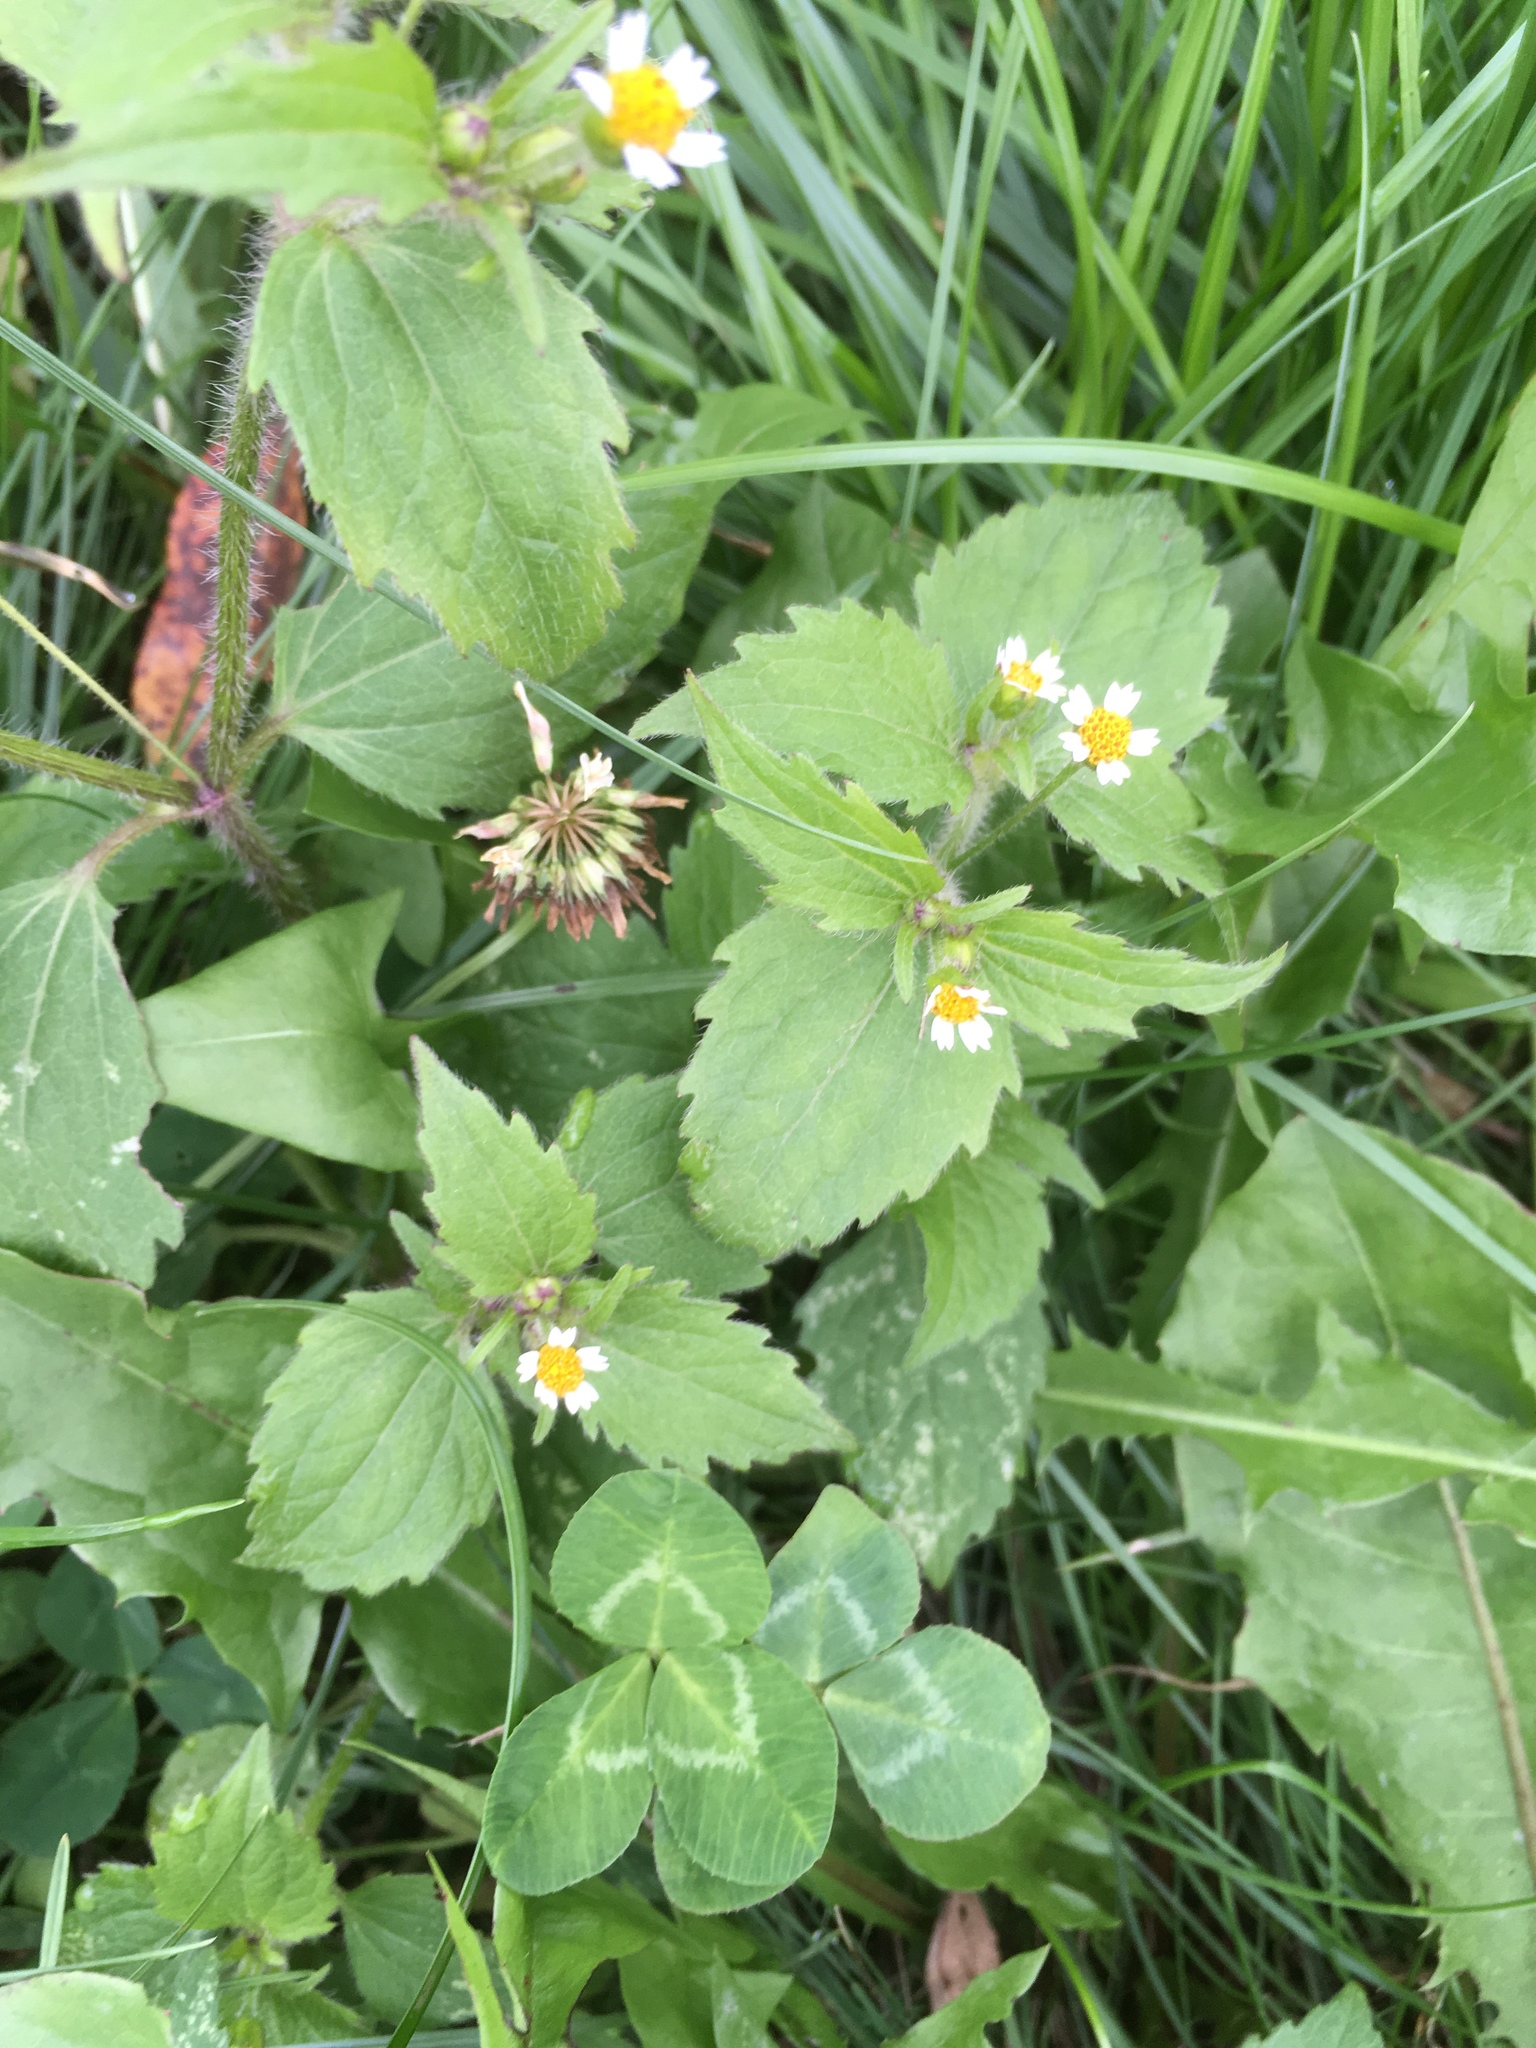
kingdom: Plantae
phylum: Tracheophyta
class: Magnoliopsida
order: Asterales
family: Asteraceae
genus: Galinsoga
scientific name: Galinsoga quadriradiata
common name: Shaggy soldier
